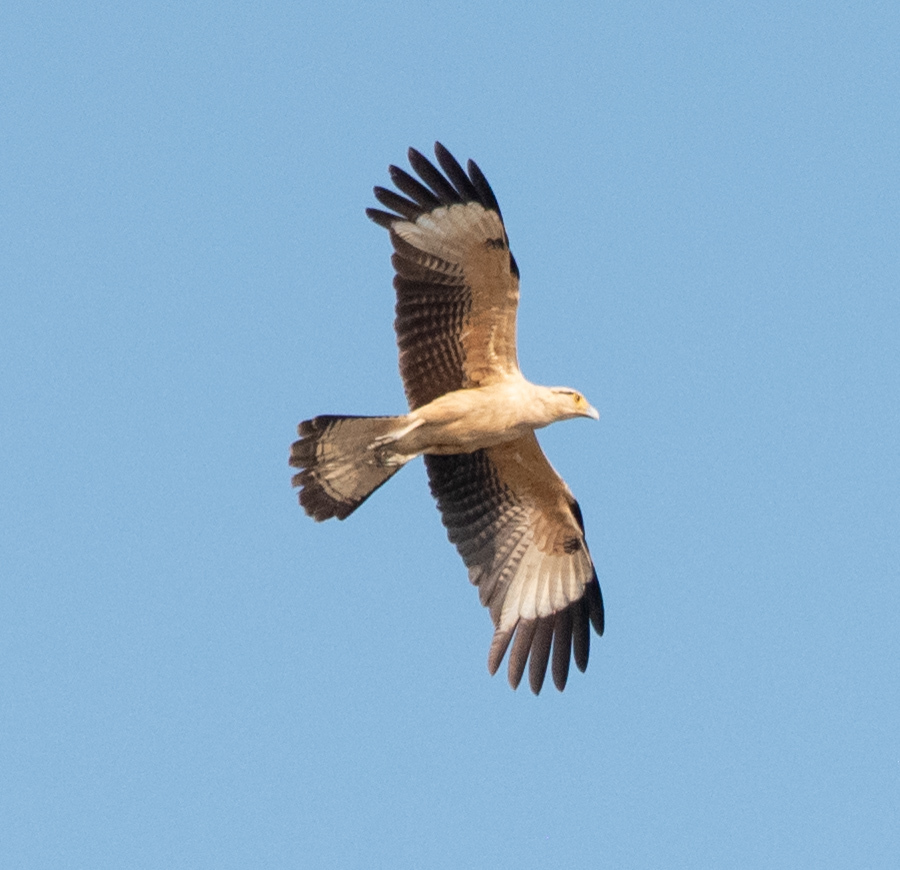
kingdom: Animalia
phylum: Chordata
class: Aves
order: Falconiformes
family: Falconidae
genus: Daptrius
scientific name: Daptrius
